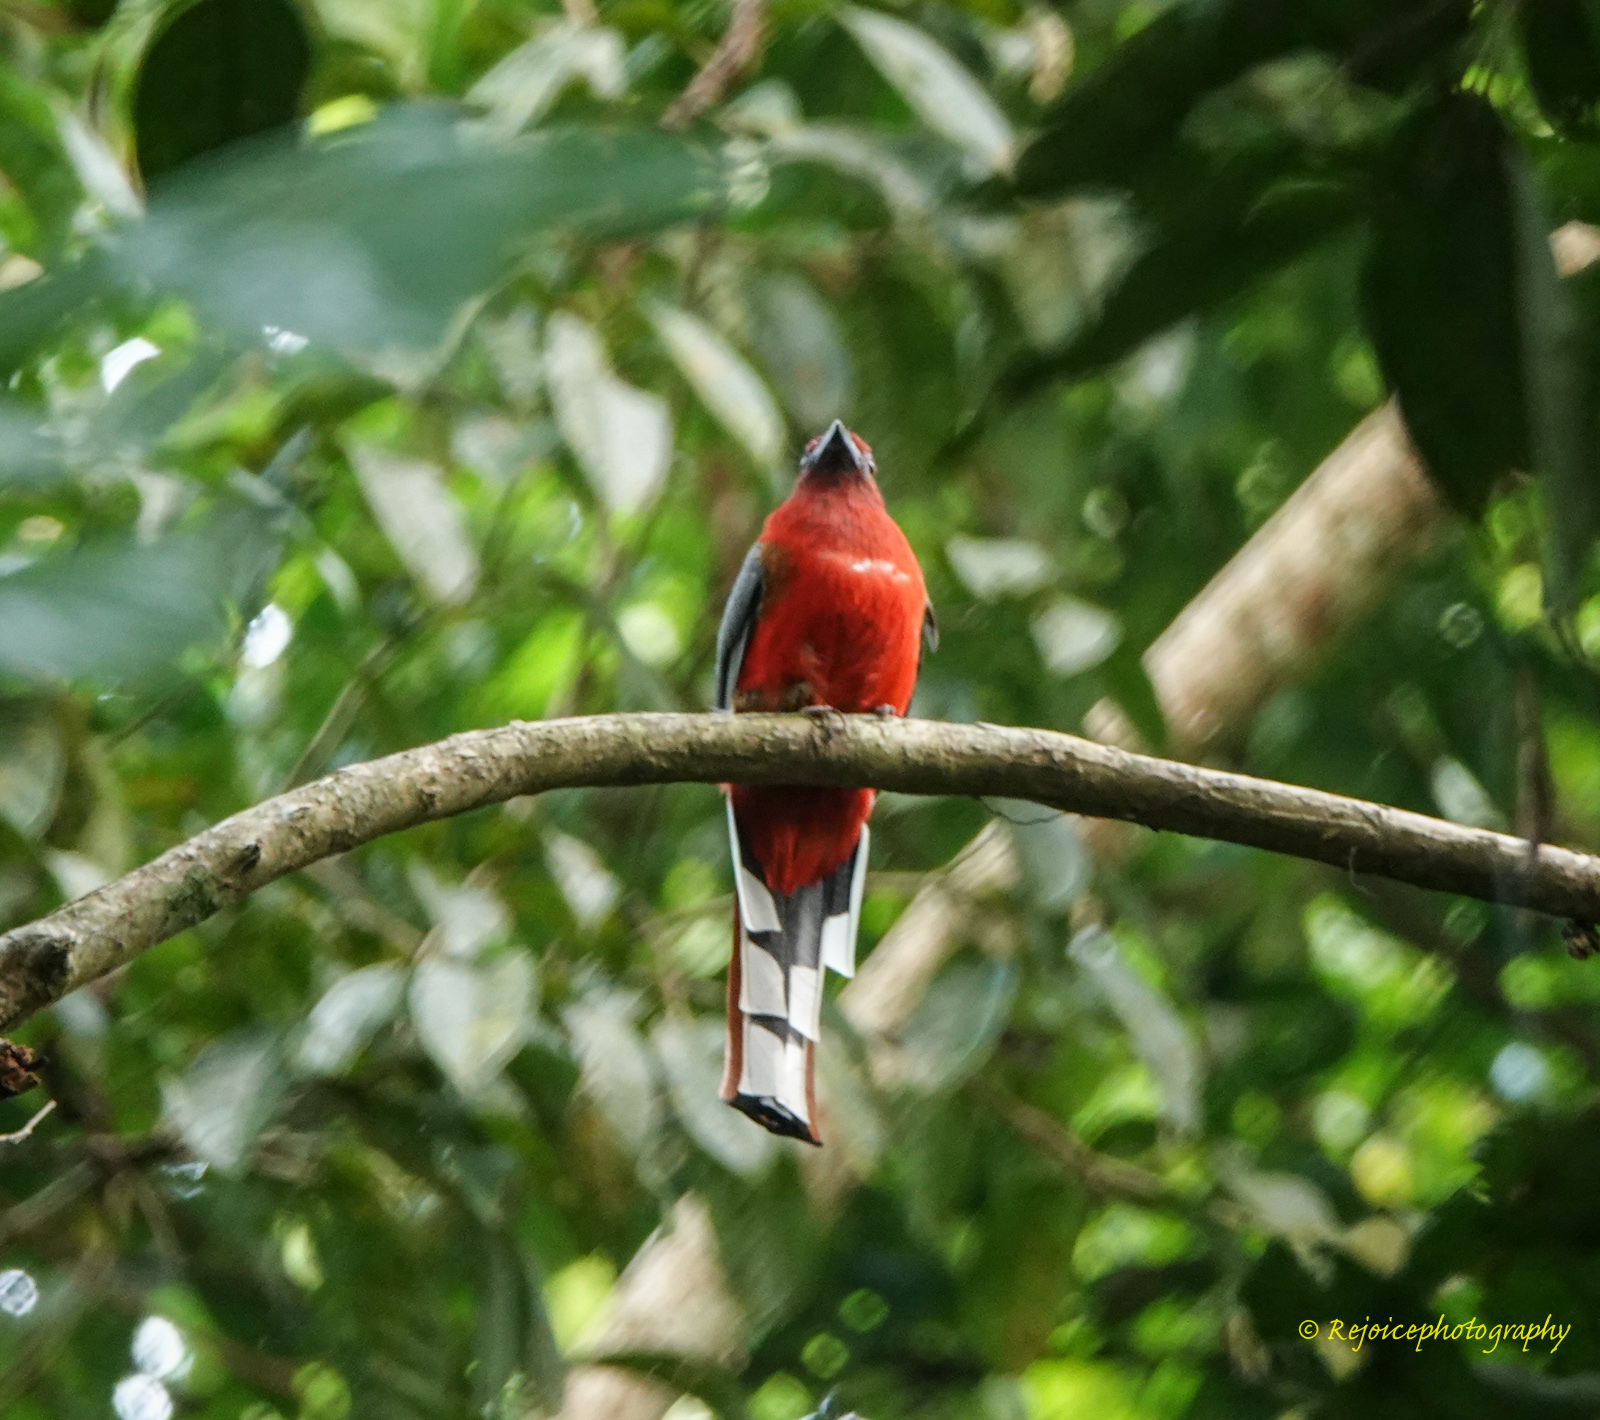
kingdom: Animalia
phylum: Chordata
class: Aves
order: Trogoniformes
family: Trogonidae
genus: Harpactes
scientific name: Harpactes erythrocephalus
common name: Red-headed trogon
